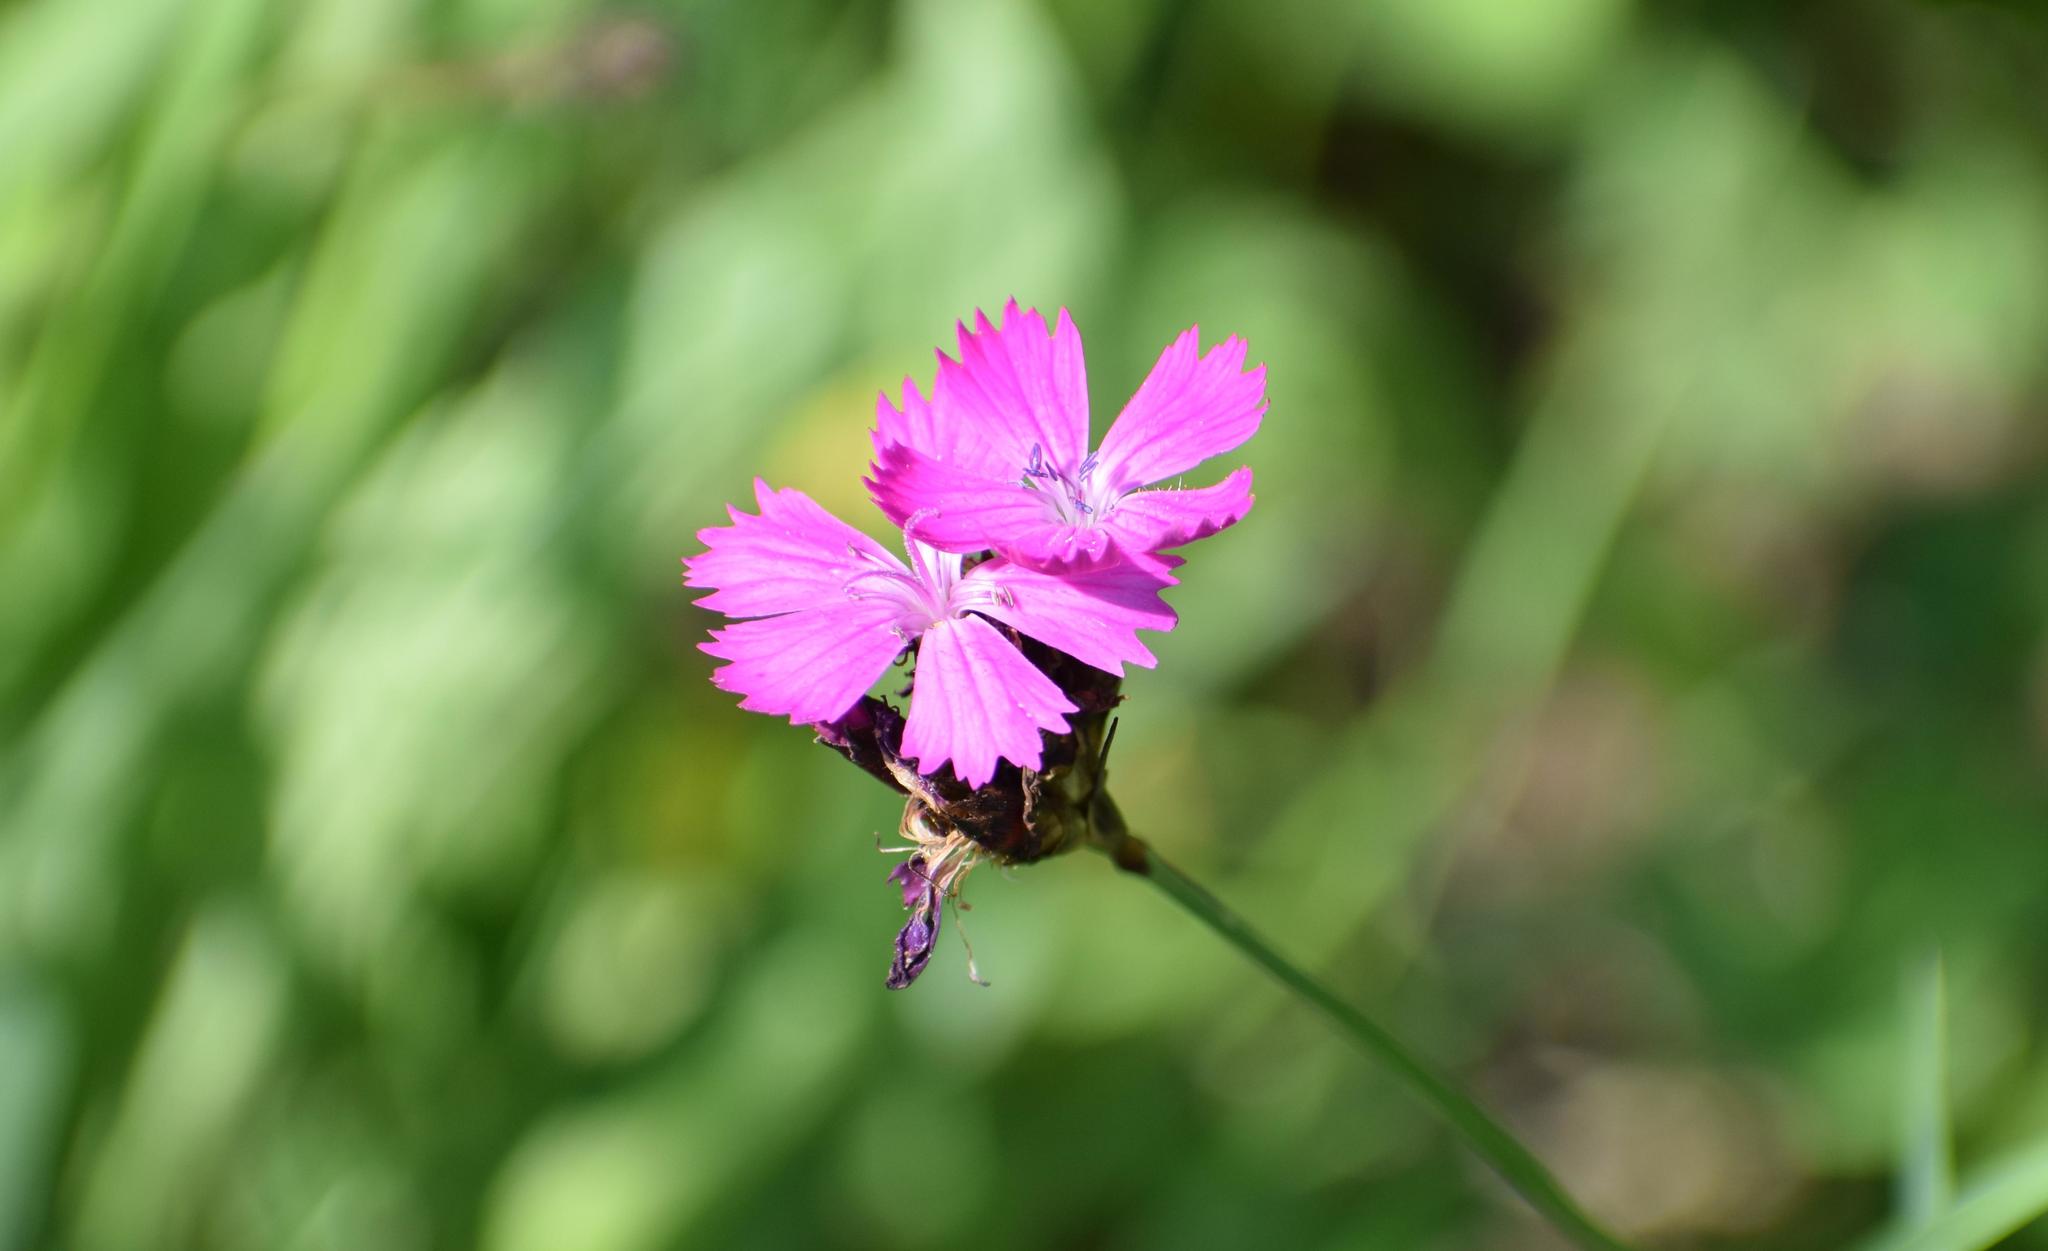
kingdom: Plantae
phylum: Tracheophyta
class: Magnoliopsida
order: Caryophyllales
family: Caryophyllaceae
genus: Dianthus
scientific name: Dianthus carthusianorum
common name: Carthusian pink
